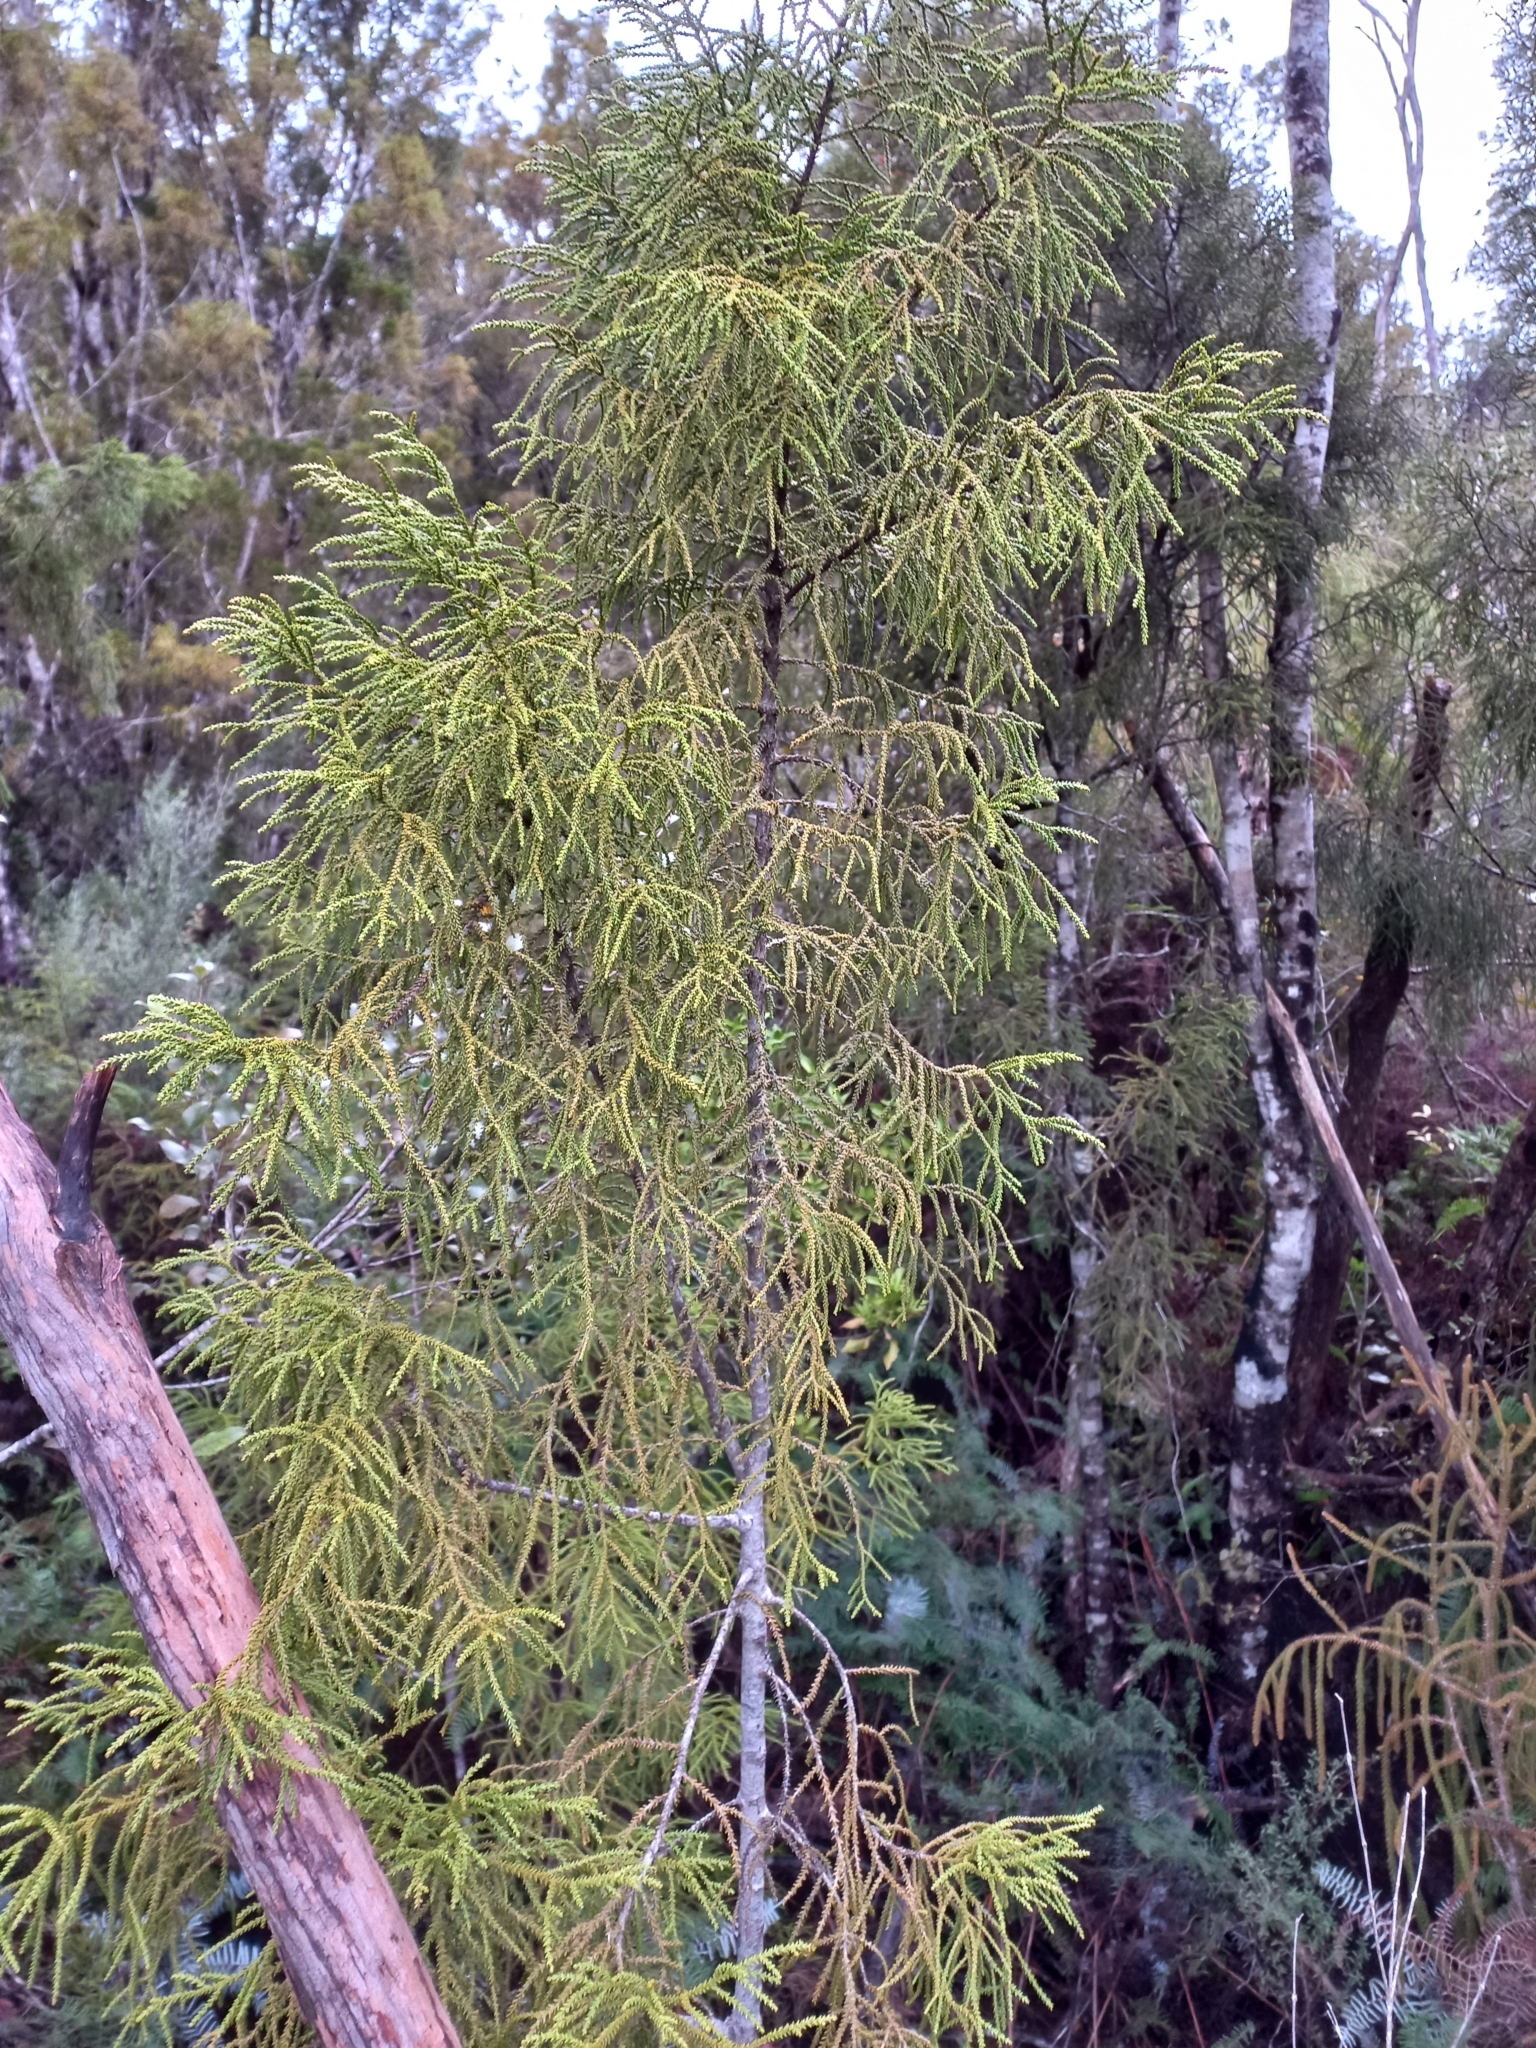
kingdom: Plantae
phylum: Tracheophyta
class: Pinopsida
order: Pinales
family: Podocarpaceae
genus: Lepidothamnus
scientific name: Lepidothamnus intermedius
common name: Yellow silver pine
